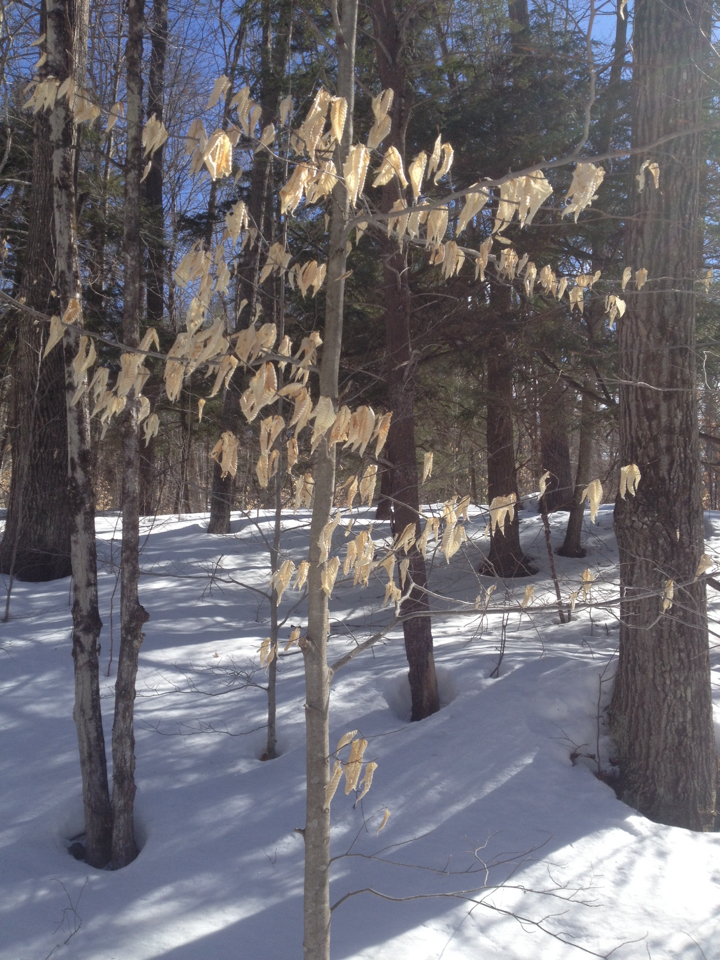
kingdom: Plantae
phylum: Tracheophyta
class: Magnoliopsida
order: Fagales
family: Fagaceae
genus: Fagus
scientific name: Fagus grandifolia
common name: American beech
